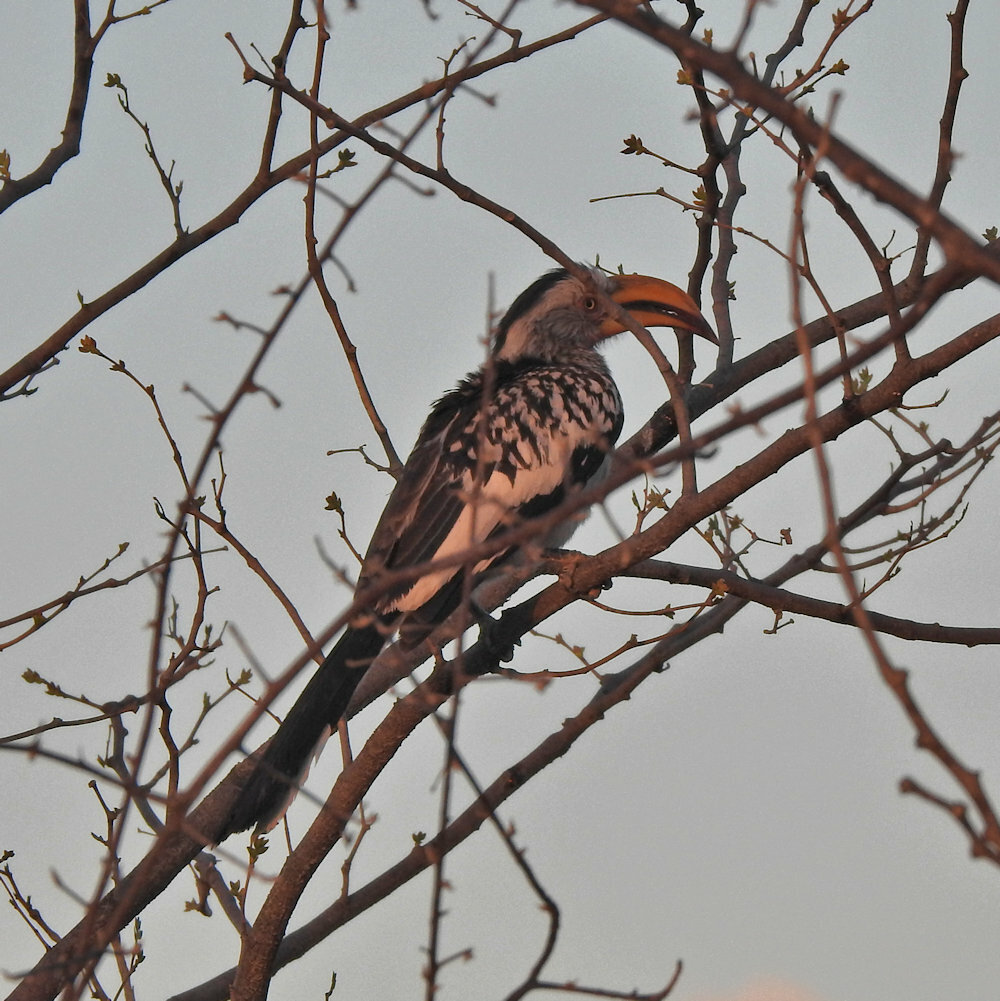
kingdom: Animalia
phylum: Chordata
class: Aves
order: Bucerotiformes
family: Bucerotidae
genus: Tockus
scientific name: Tockus leucomelas
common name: Southern yellow-billed hornbill
